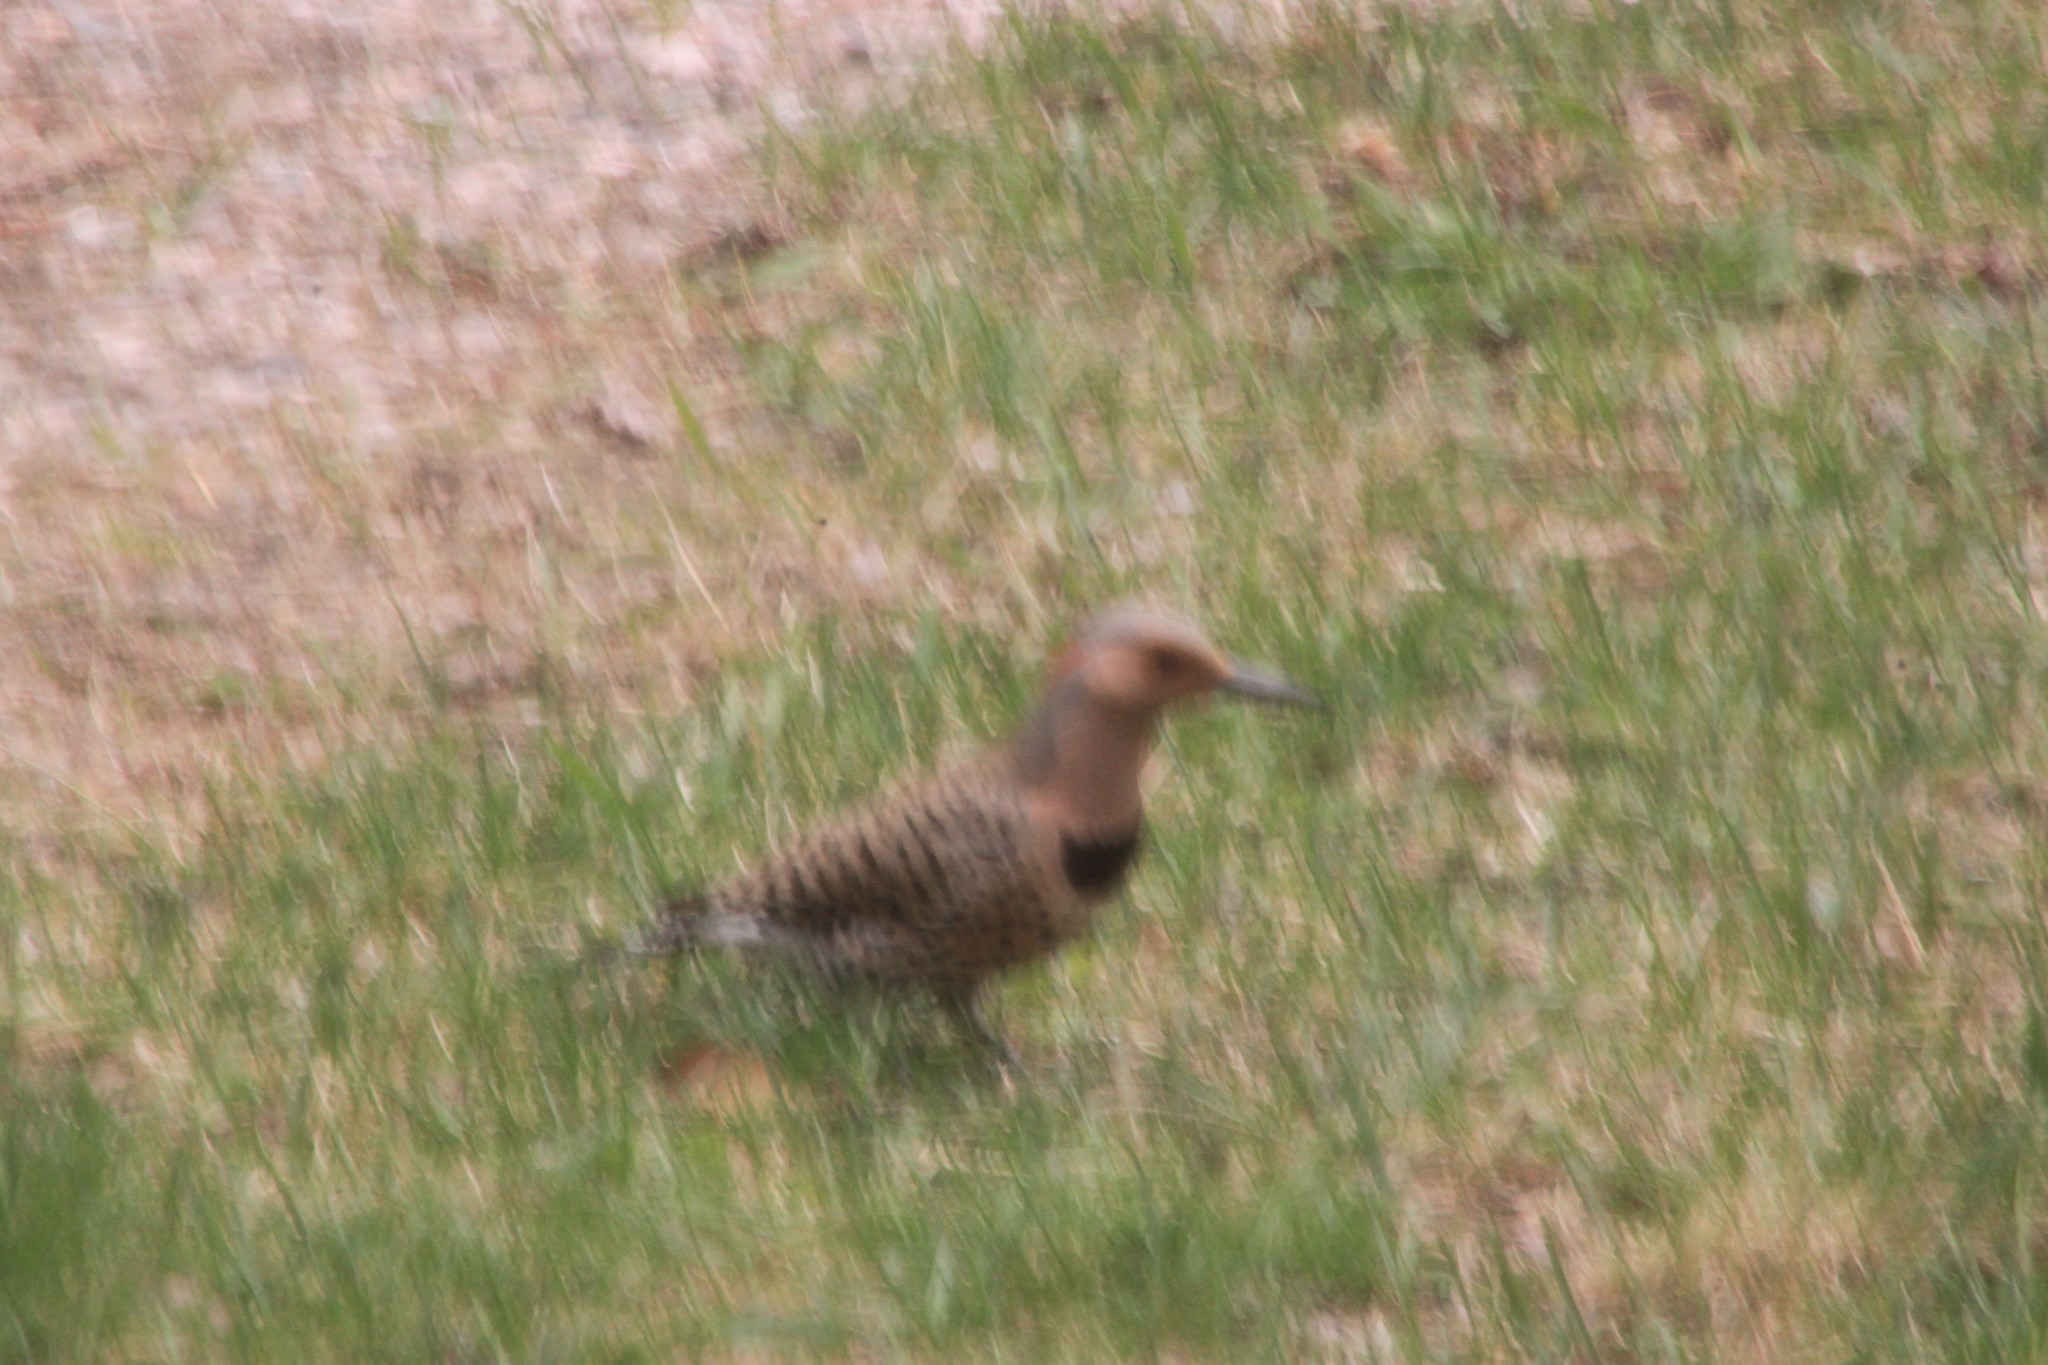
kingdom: Animalia
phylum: Chordata
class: Aves
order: Piciformes
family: Picidae
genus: Colaptes
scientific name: Colaptes auratus
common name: Northern flicker
